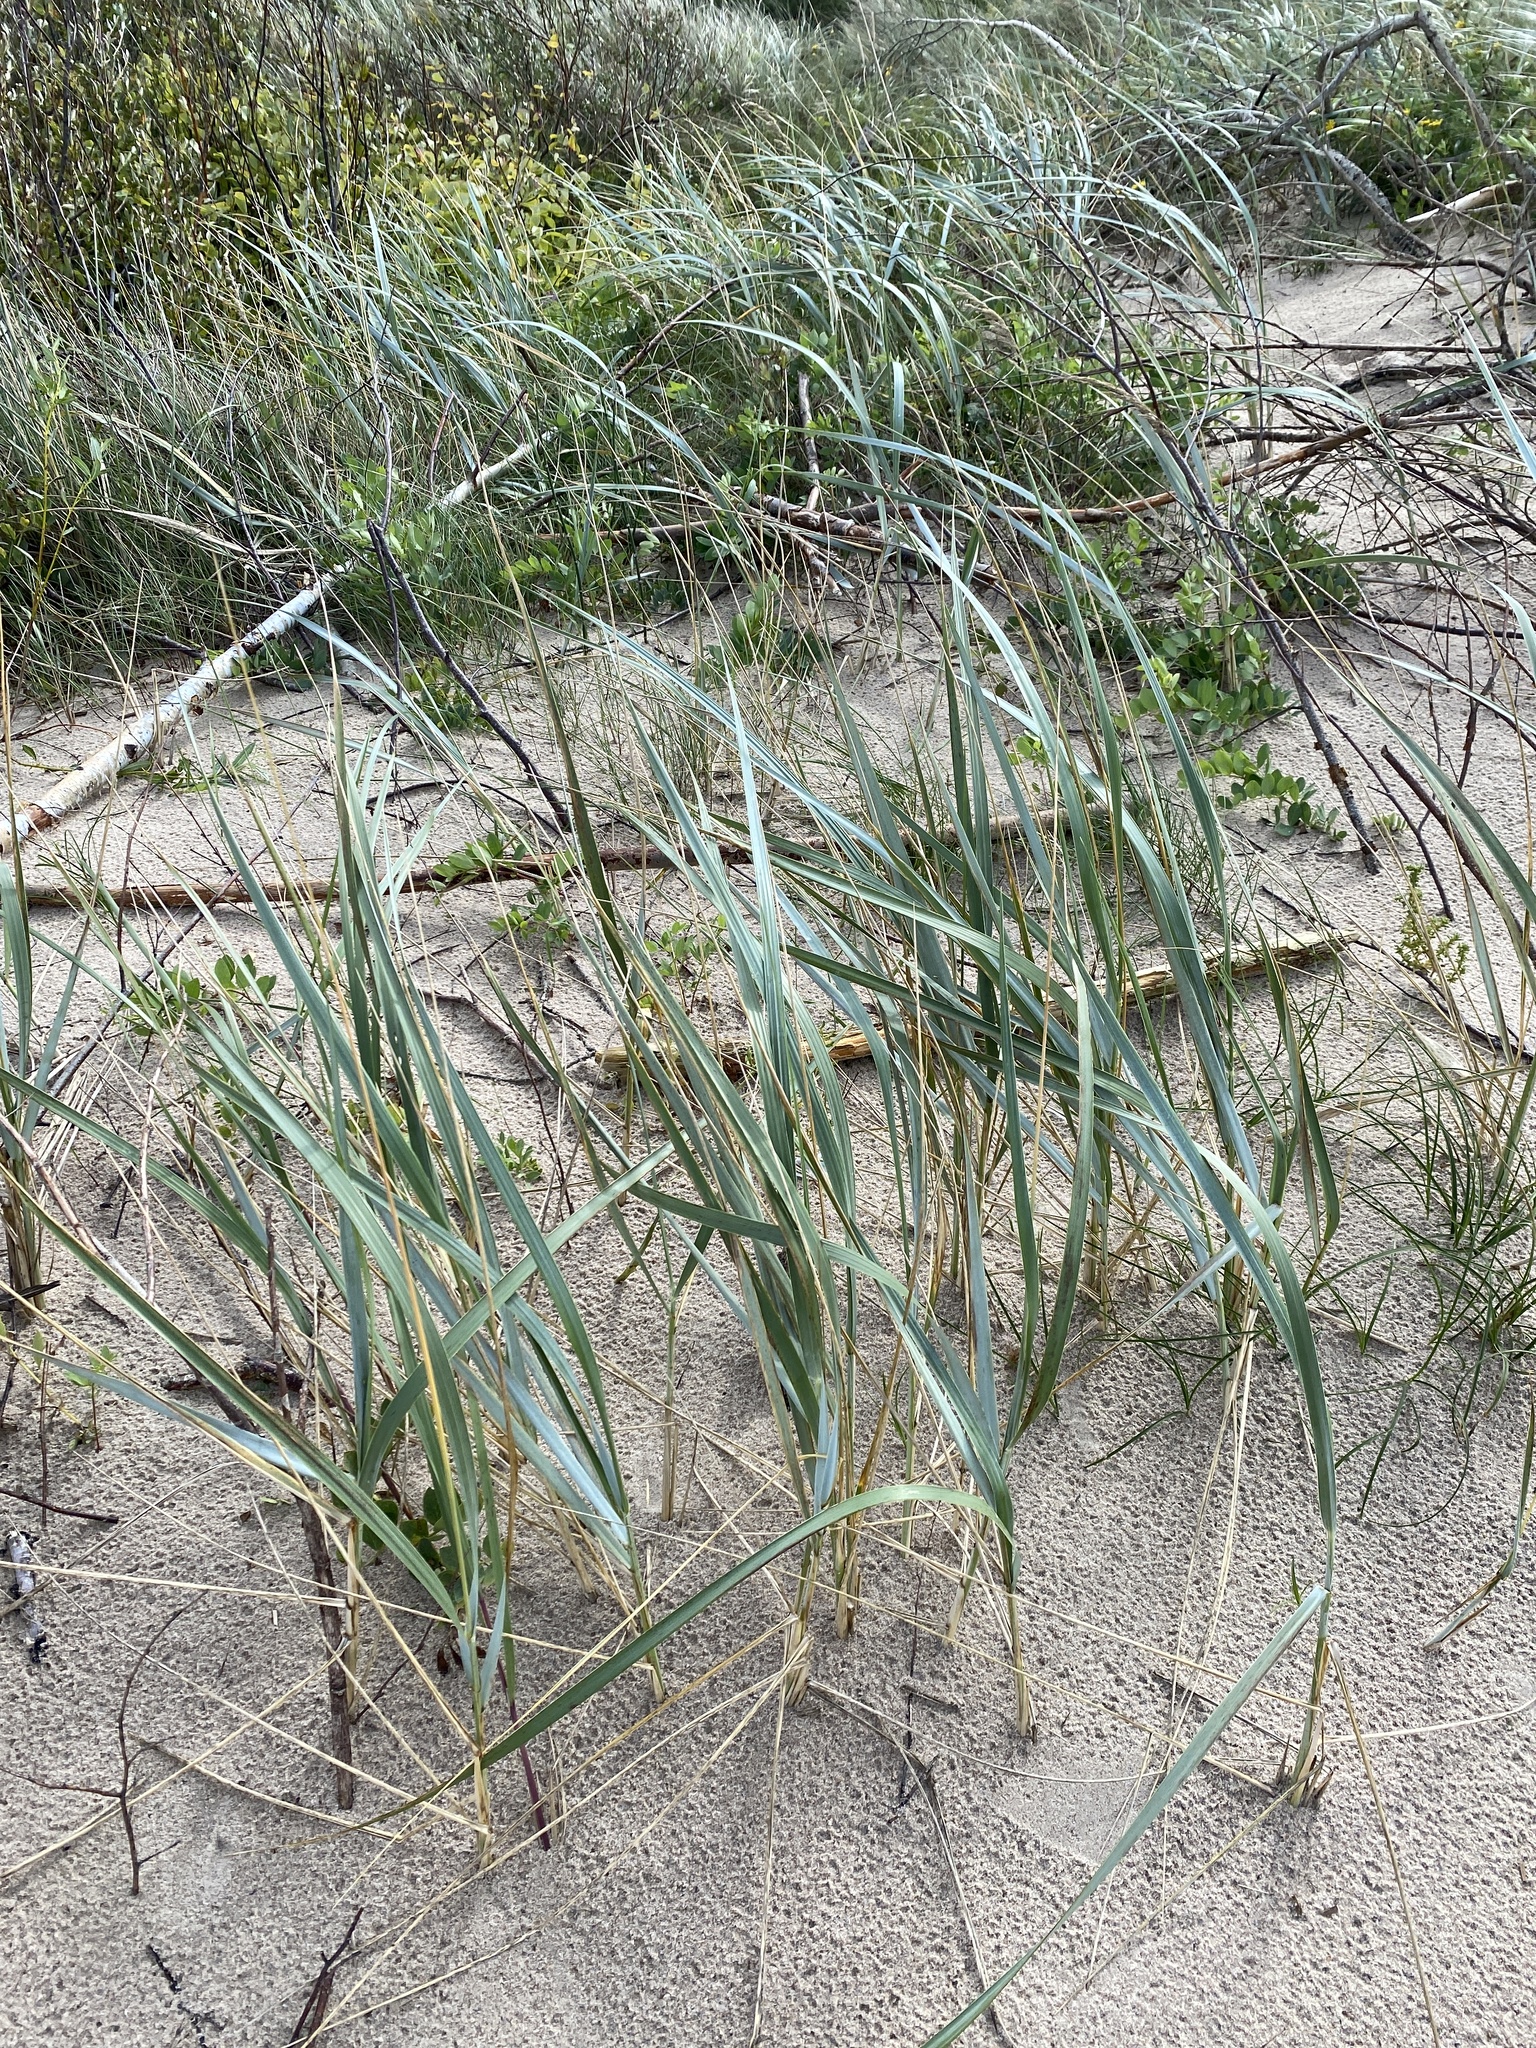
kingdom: Plantae
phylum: Tracheophyta
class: Liliopsida
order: Poales
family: Poaceae
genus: Leymus
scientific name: Leymus arenarius
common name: Lyme-grass
